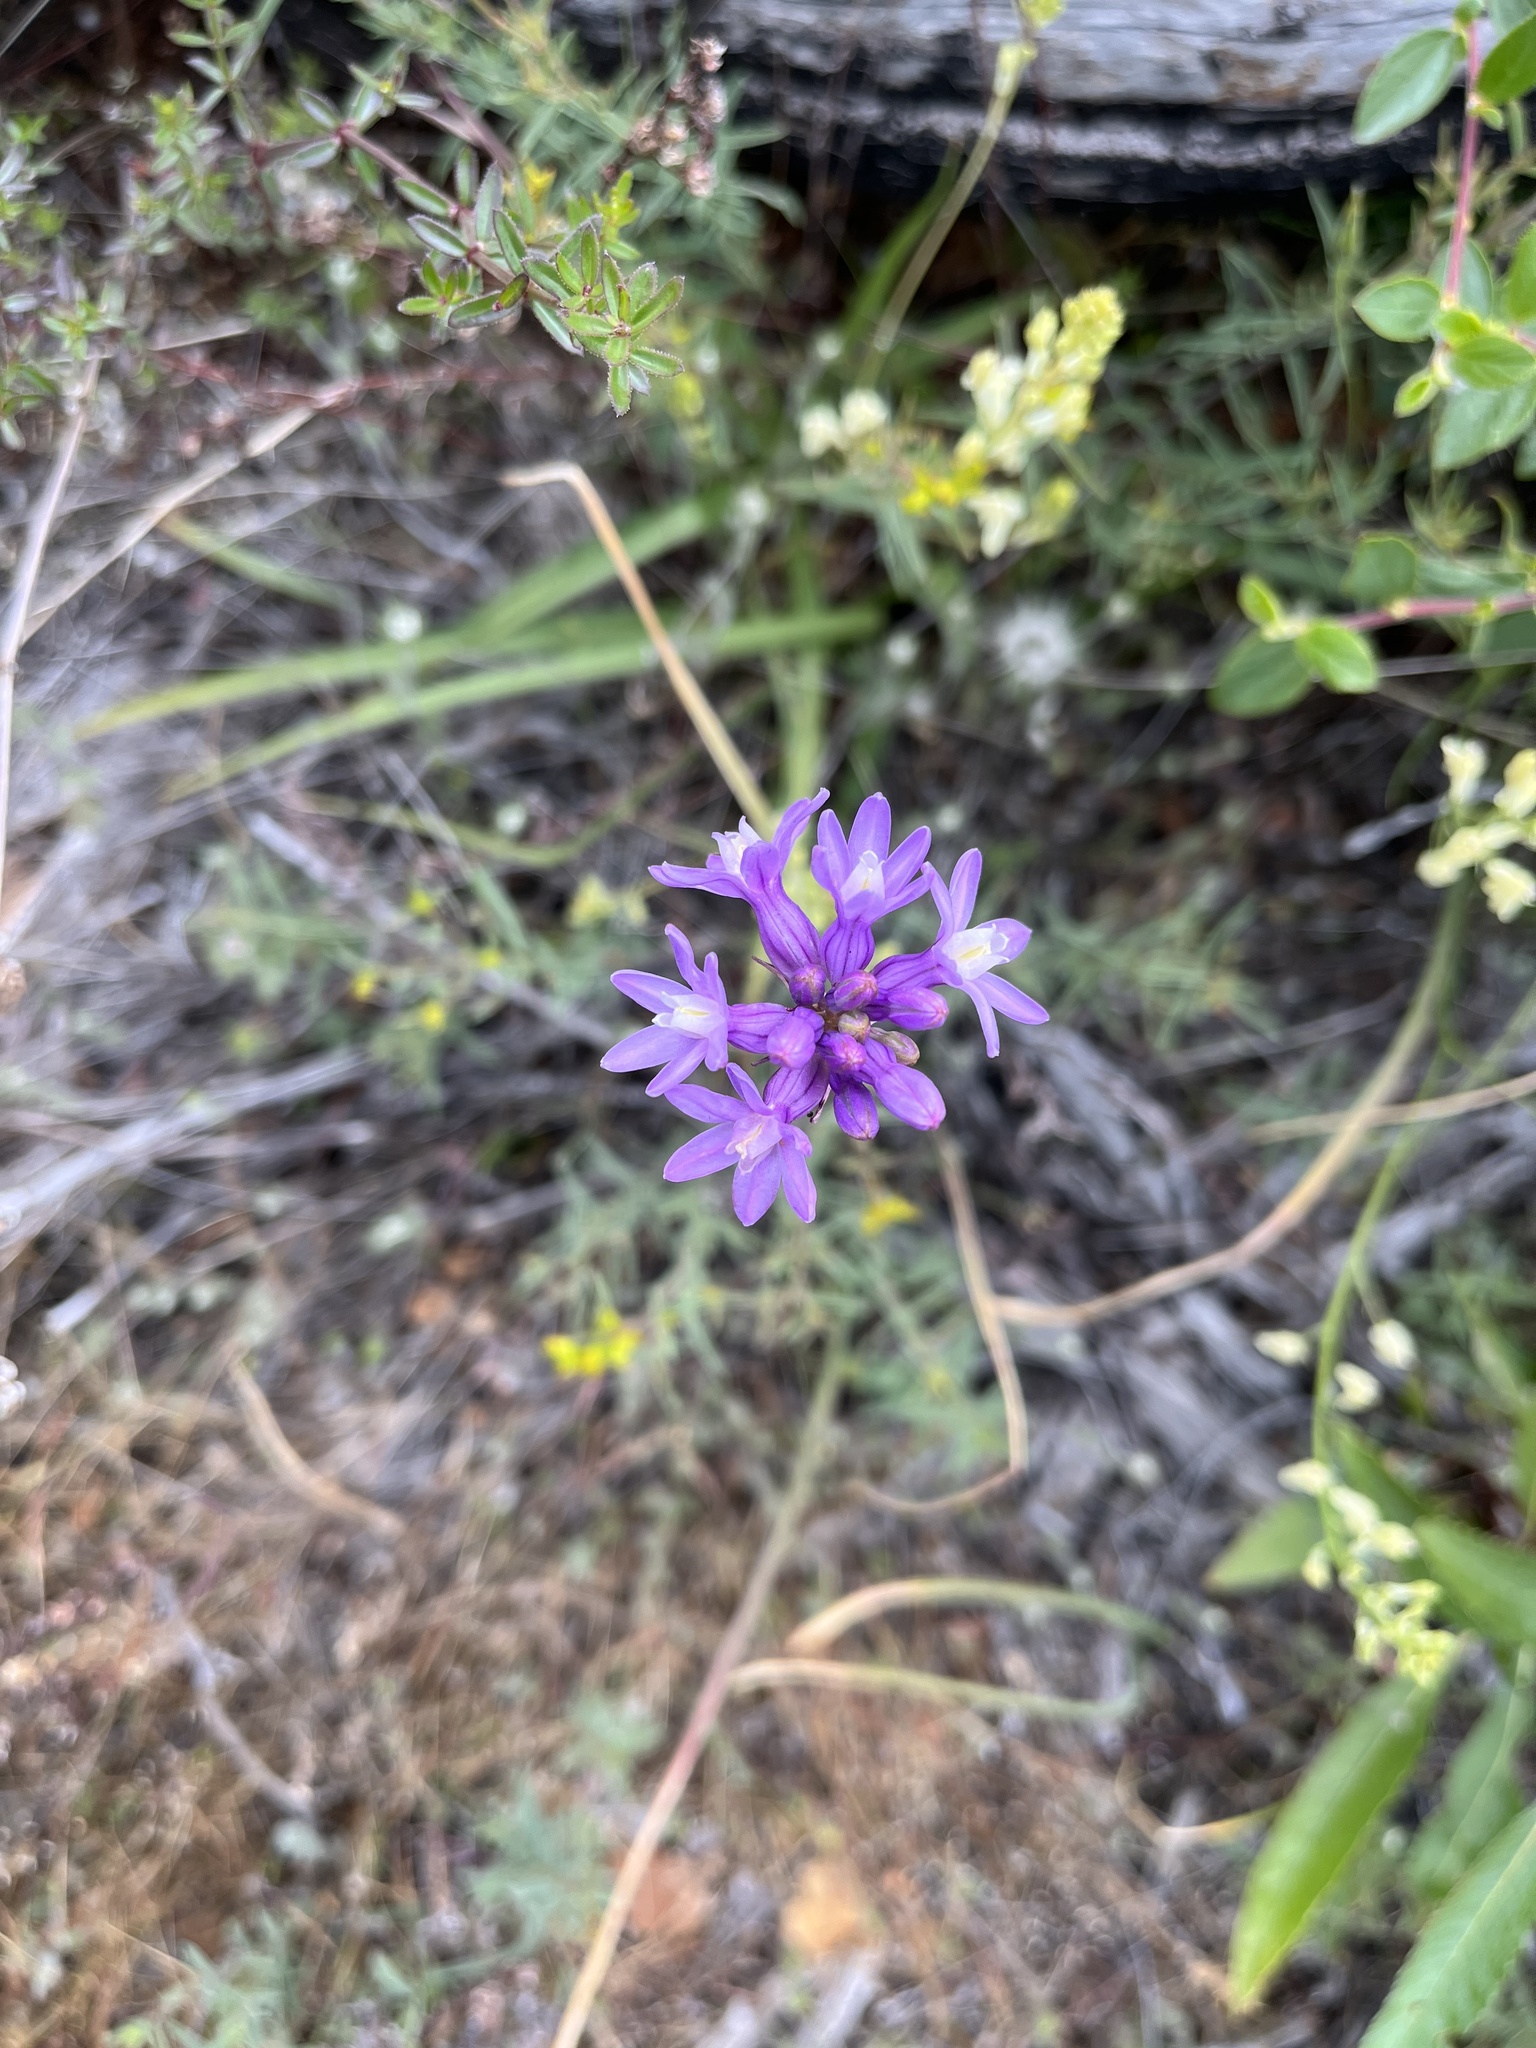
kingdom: Plantae
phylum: Tracheophyta
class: Liliopsida
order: Asparagales
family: Asparagaceae
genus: Dichelostemma
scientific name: Dichelostemma multiflorum
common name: Round-tooth ookow
